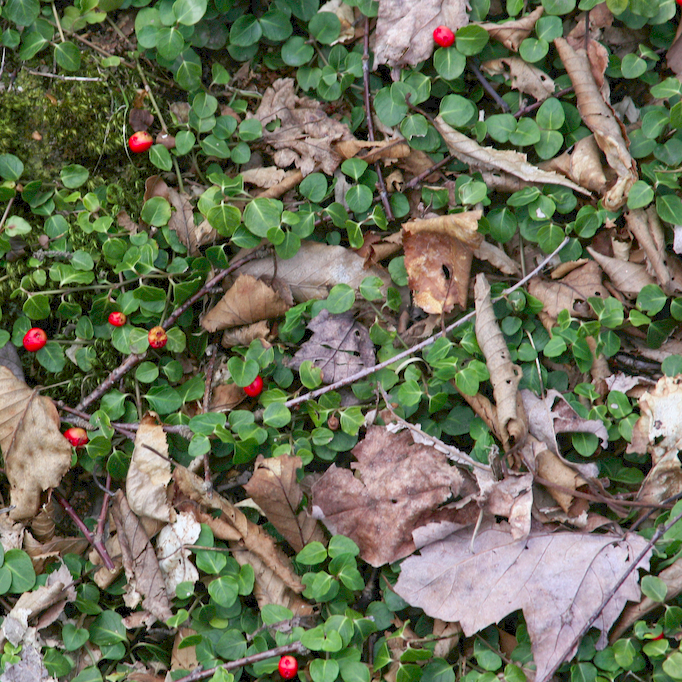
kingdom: Plantae
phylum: Tracheophyta
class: Magnoliopsida
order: Gentianales
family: Rubiaceae
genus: Mitchella
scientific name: Mitchella repens
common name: Partridge-berry
